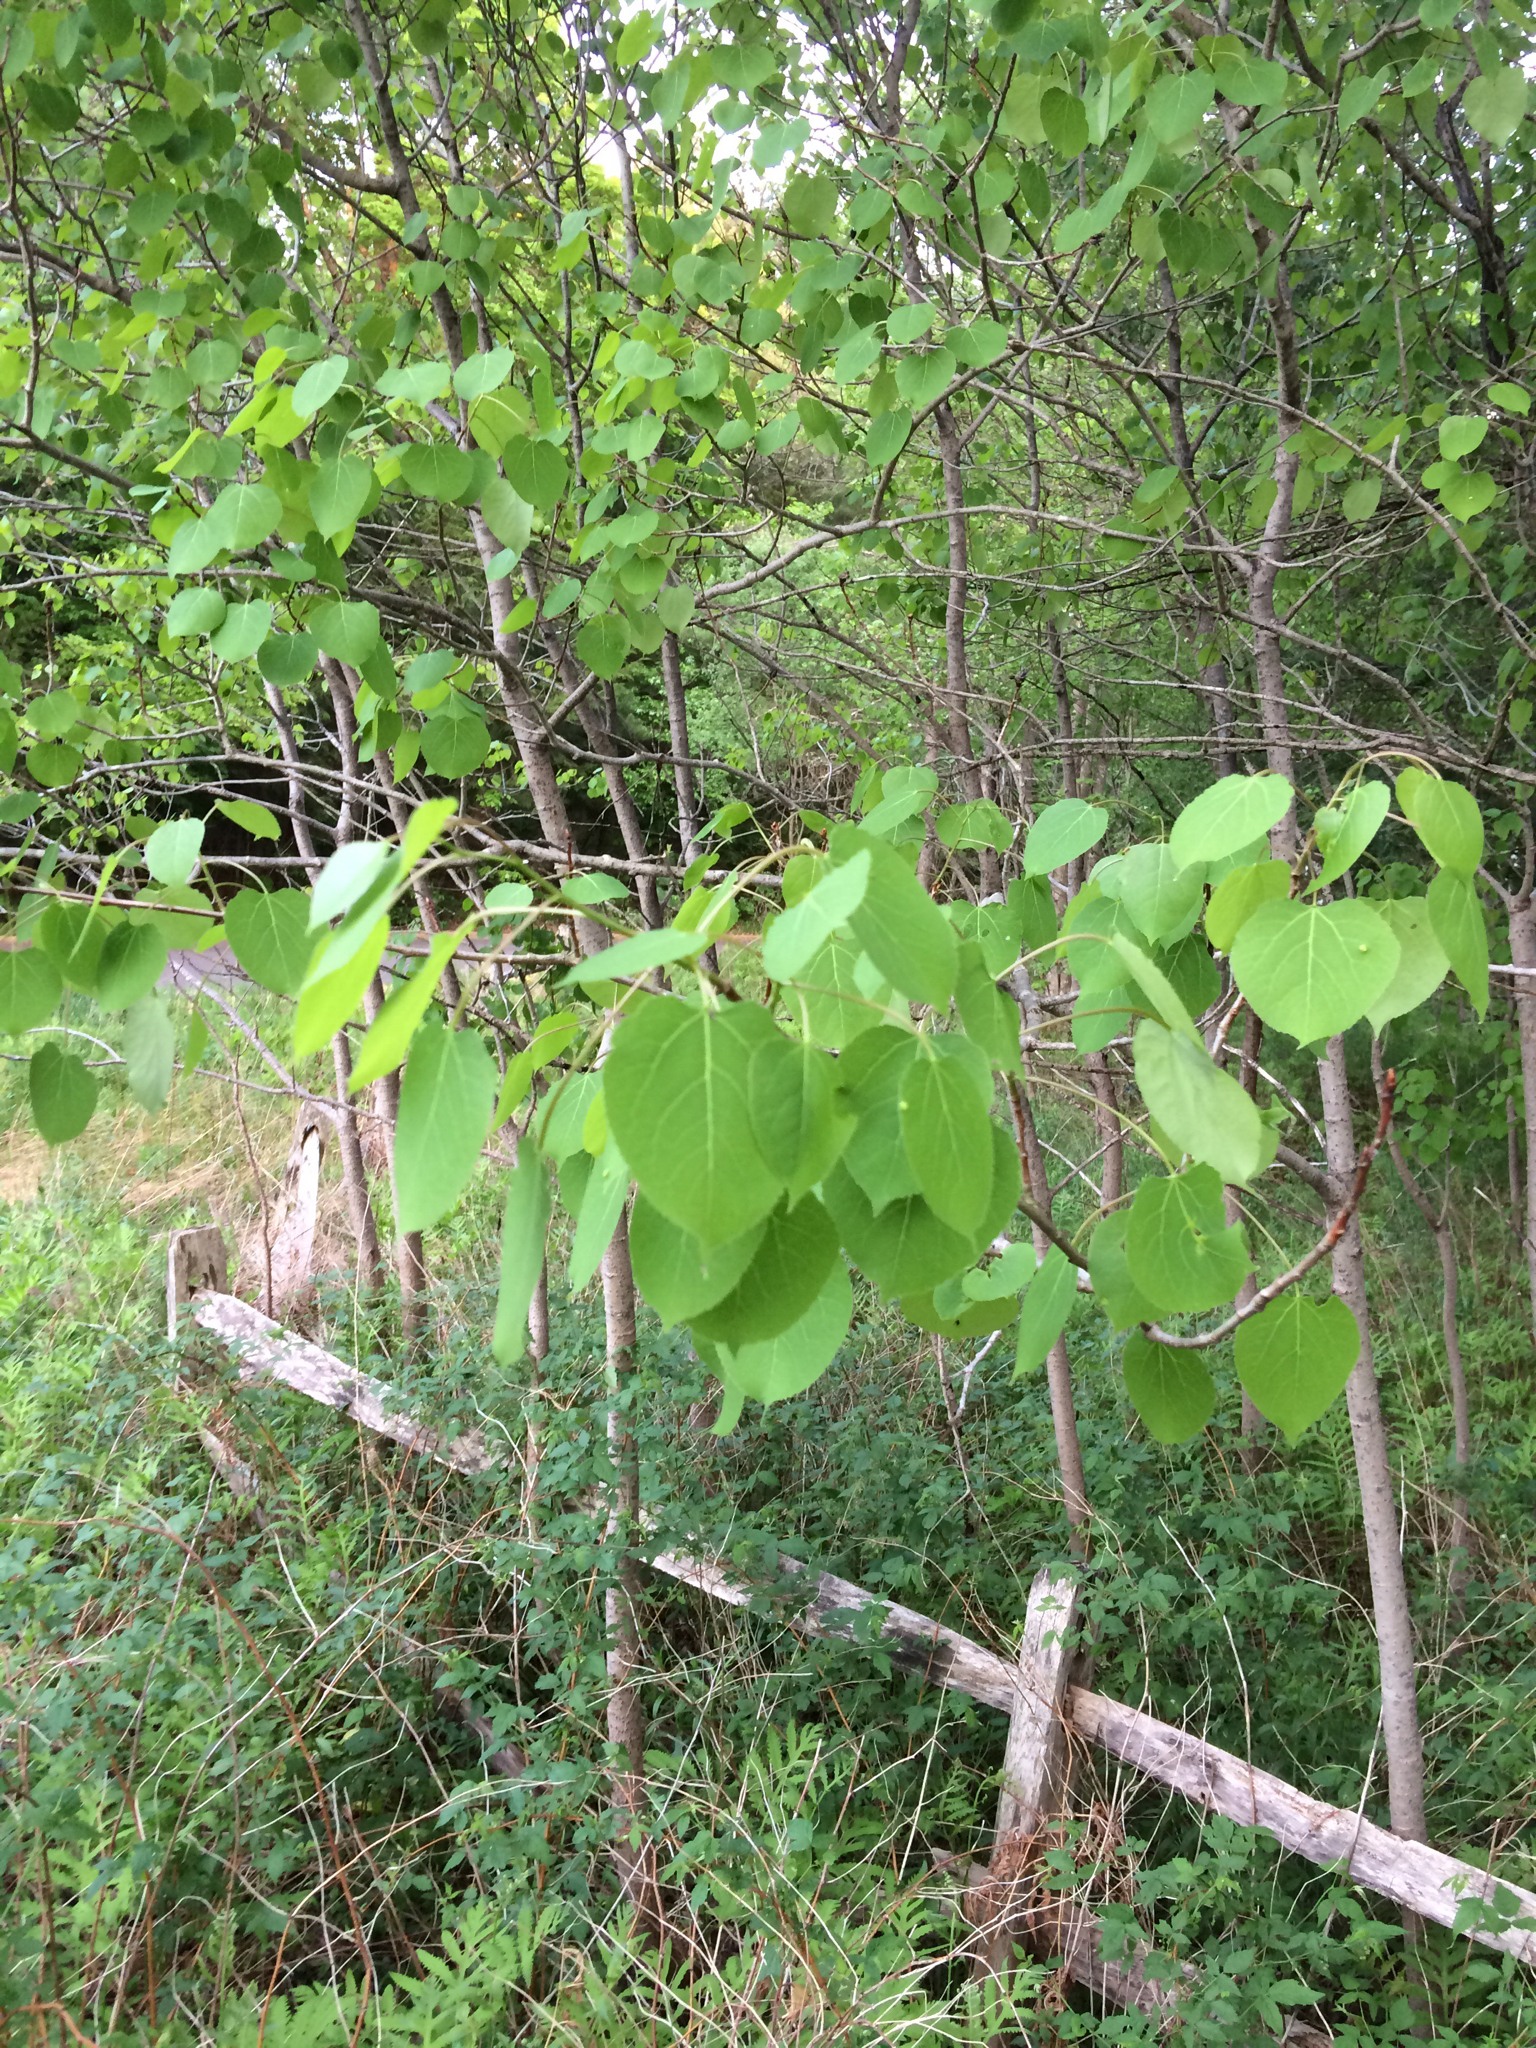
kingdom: Plantae
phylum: Tracheophyta
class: Magnoliopsida
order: Malpighiales
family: Salicaceae
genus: Populus
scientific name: Populus tremuloides
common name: Quaking aspen
